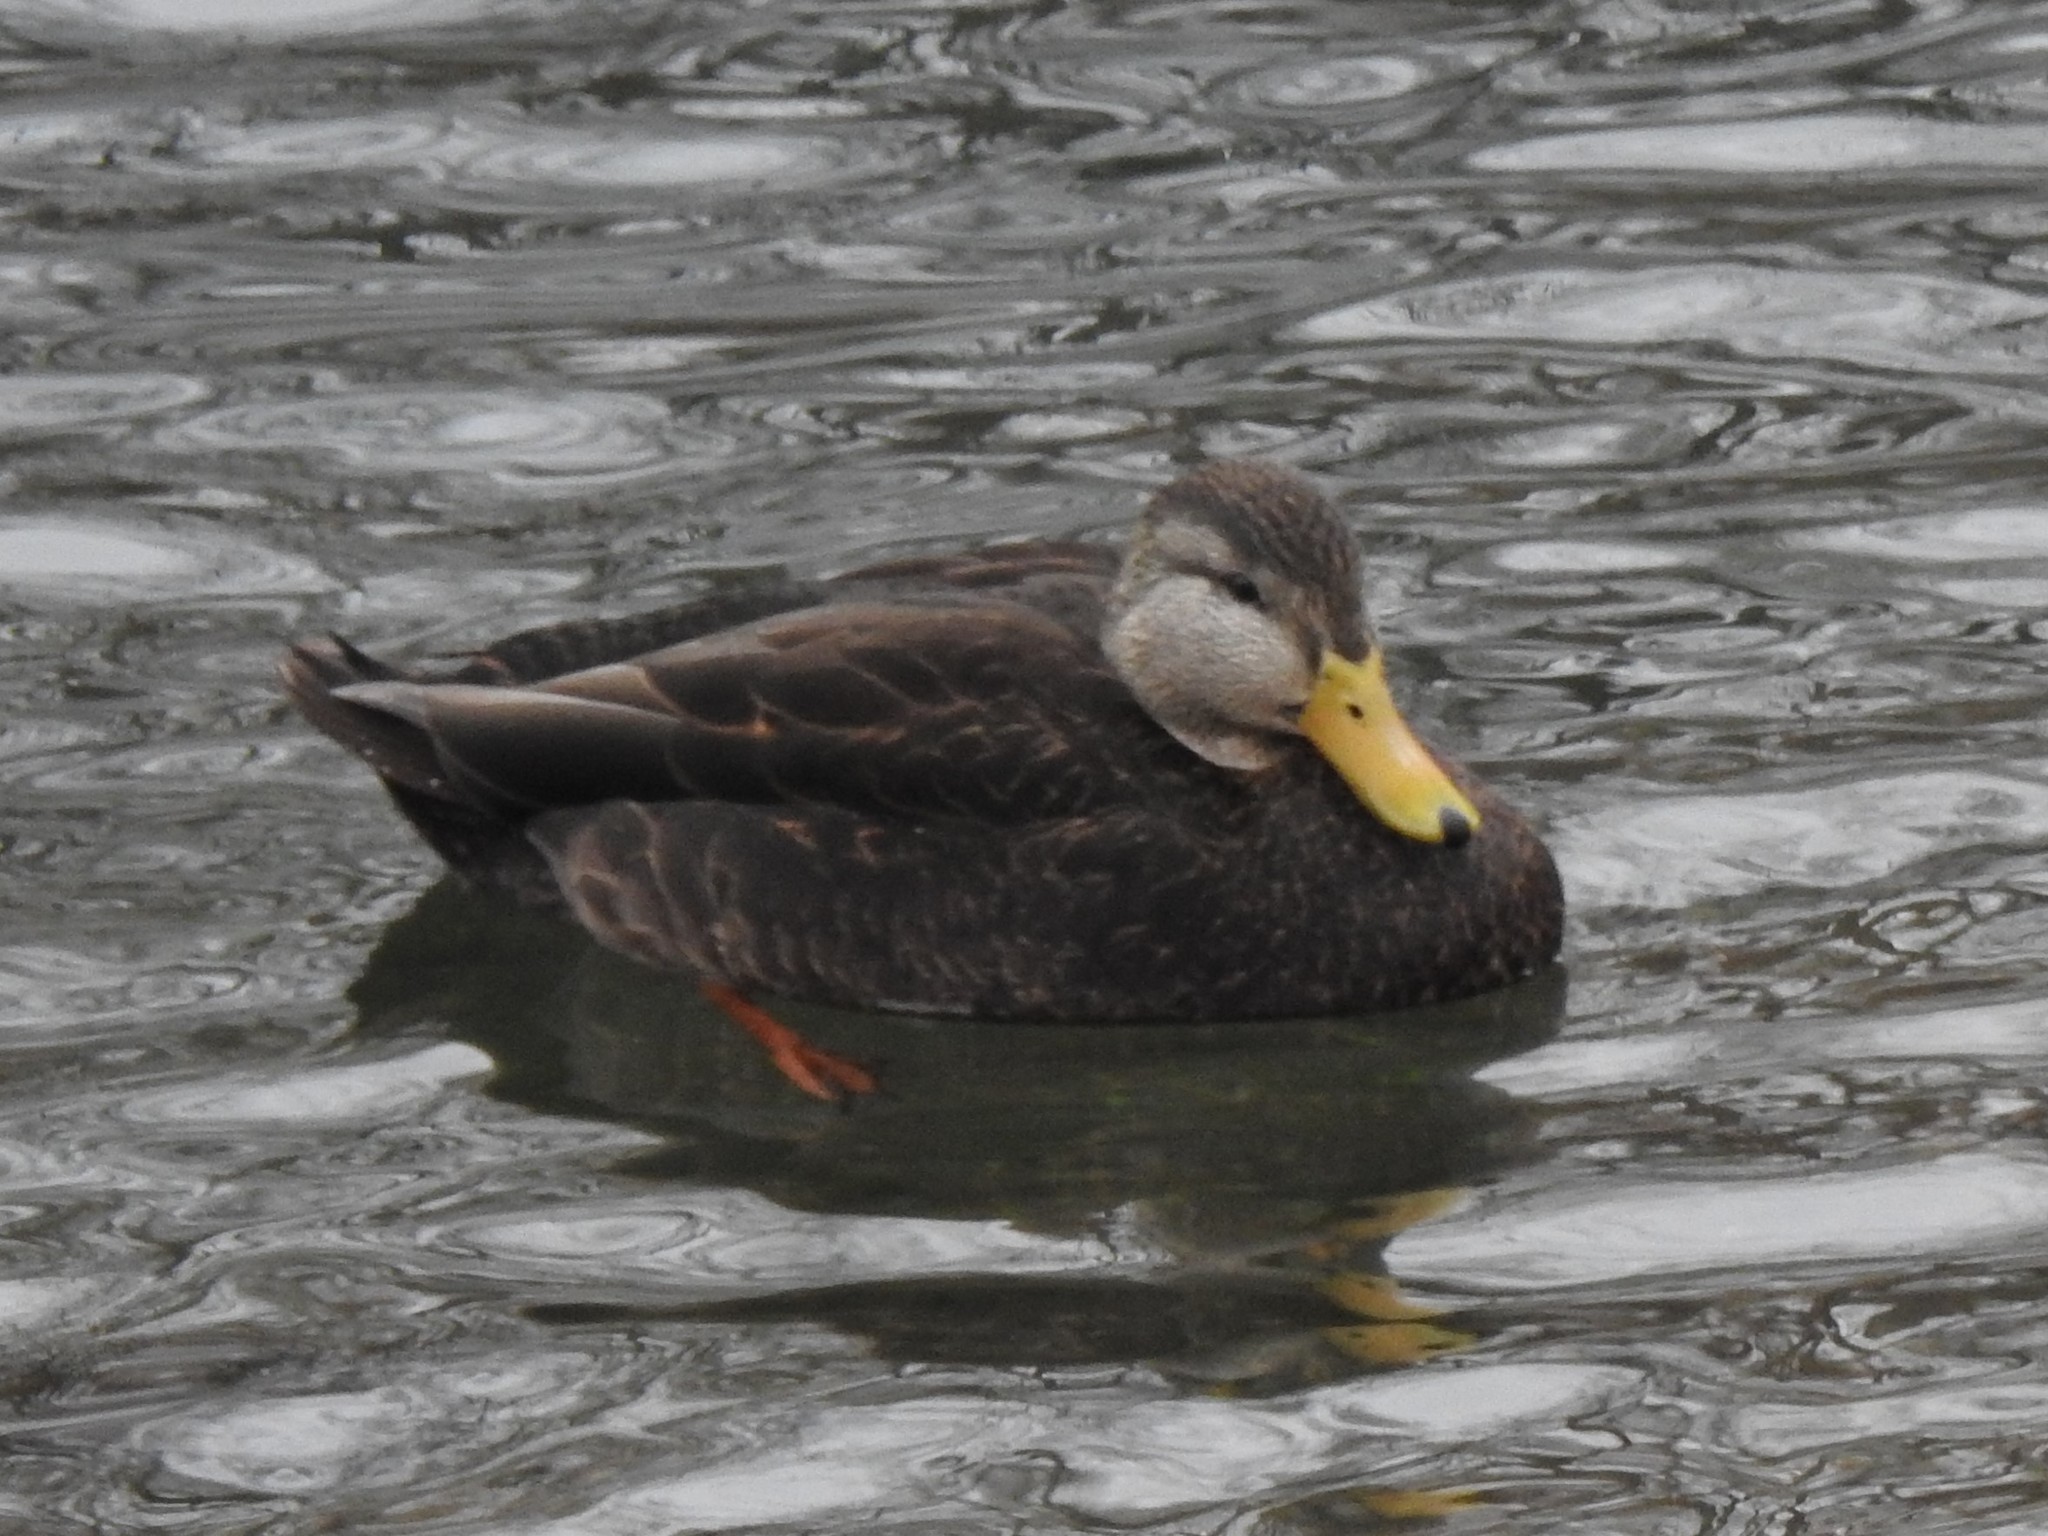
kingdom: Animalia
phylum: Chordata
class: Aves
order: Anseriformes
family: Anatidae
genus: Anas
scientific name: Anas rubripes
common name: American black duck
